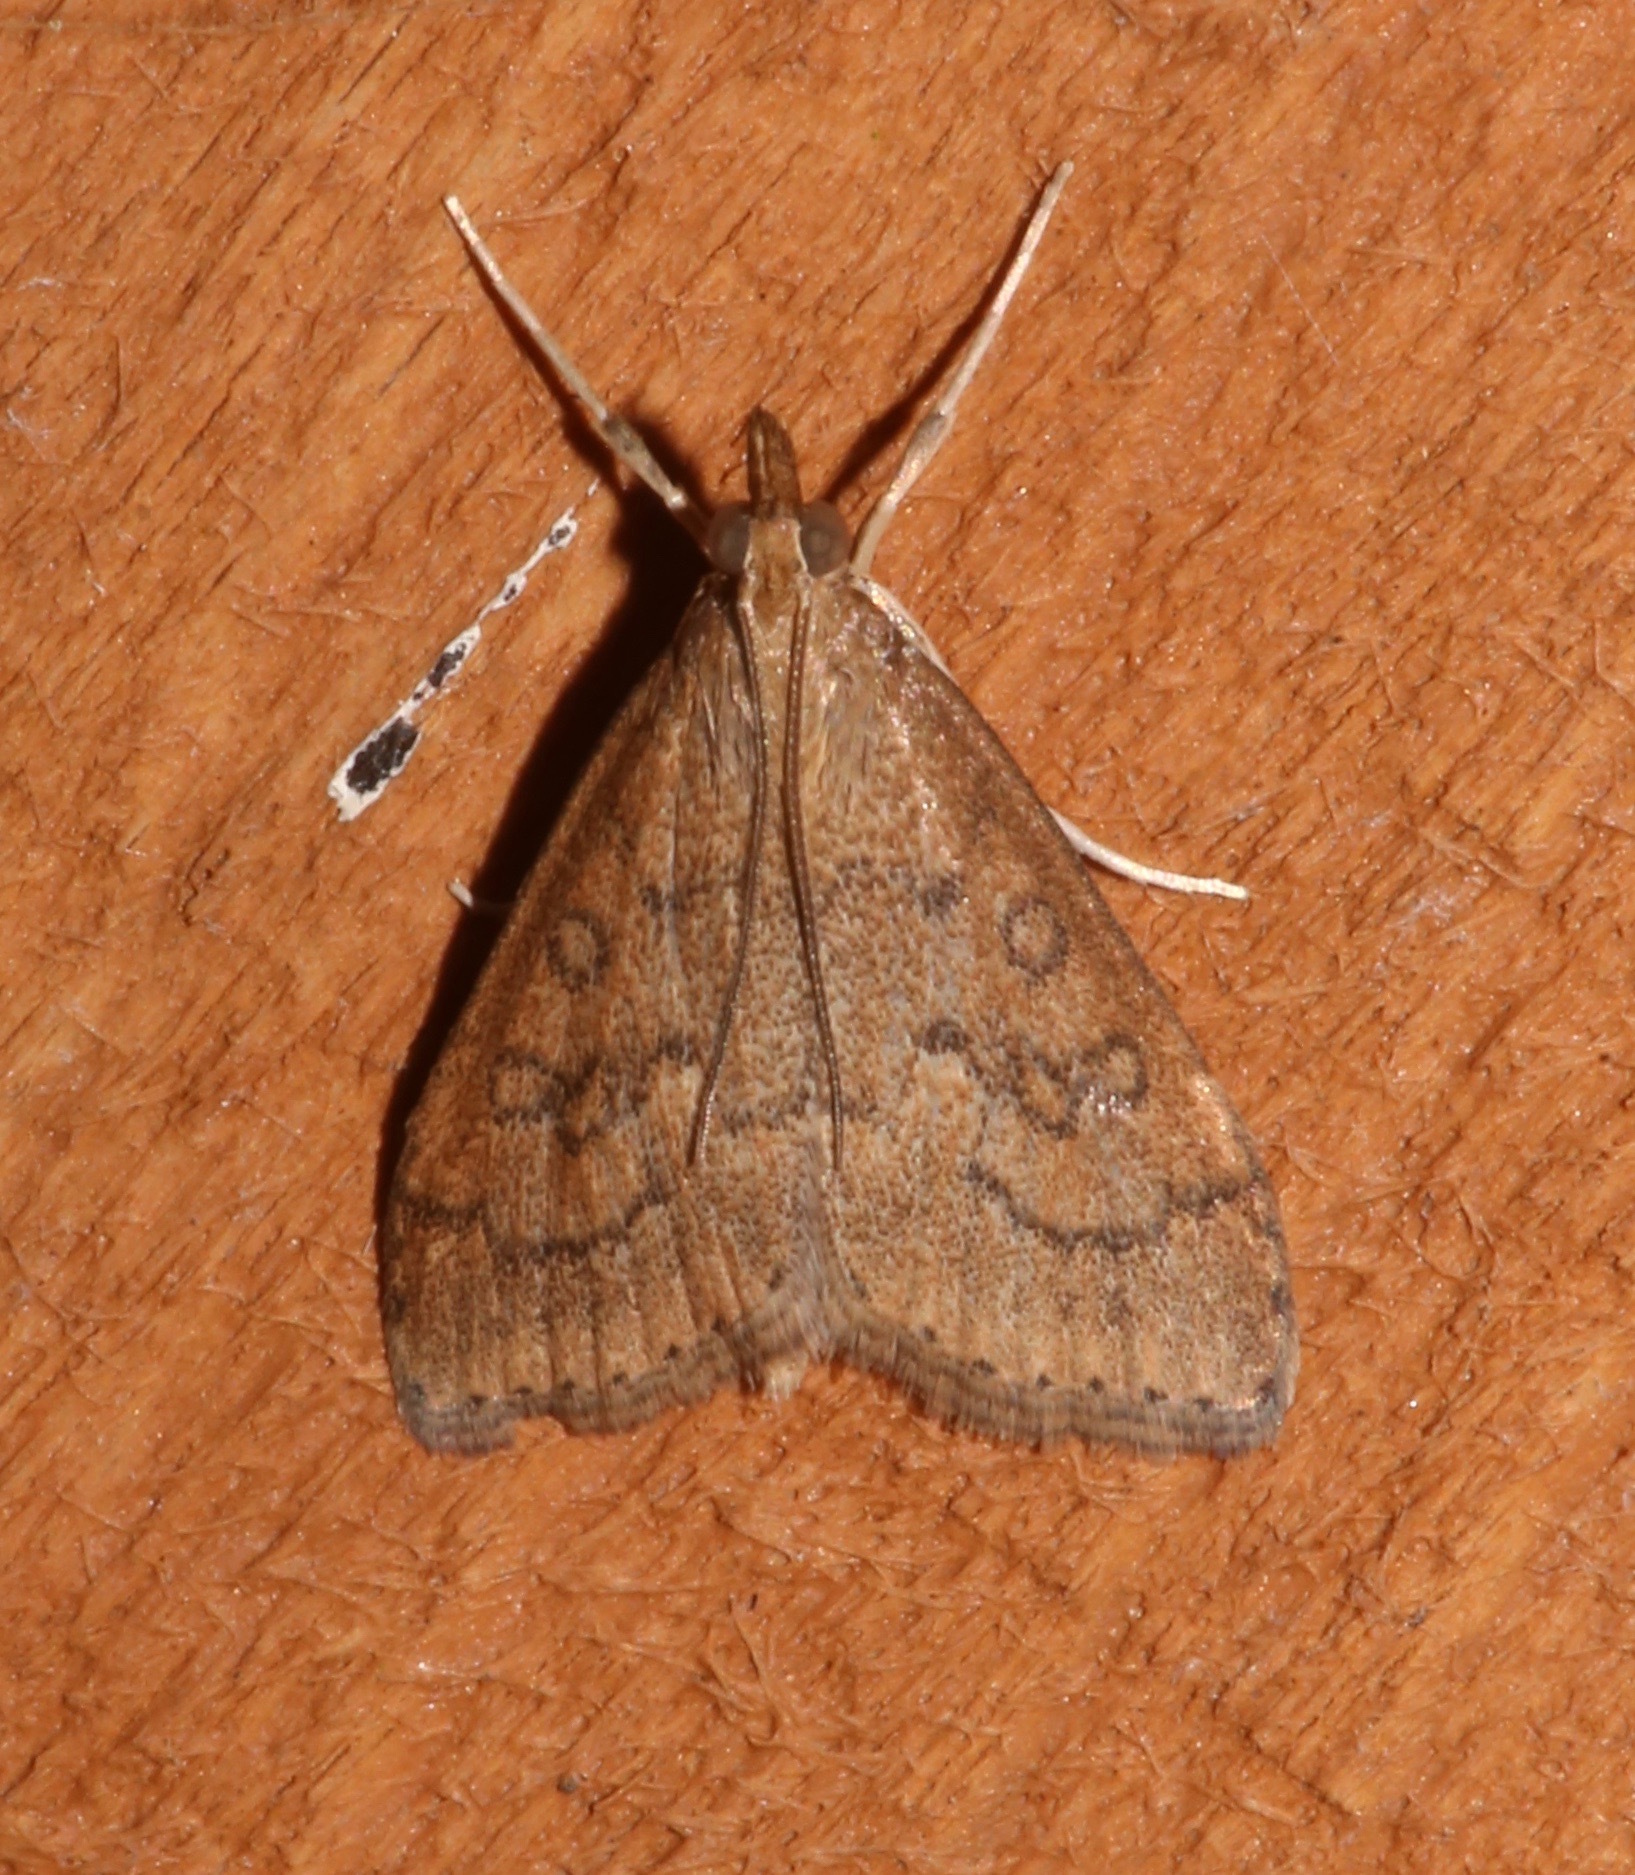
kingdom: Animalia
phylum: Arthropoda
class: Insecta
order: Lepidoptera
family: Crambidae
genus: Udea
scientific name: Udea rubigalis
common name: Celery leaftier moth
